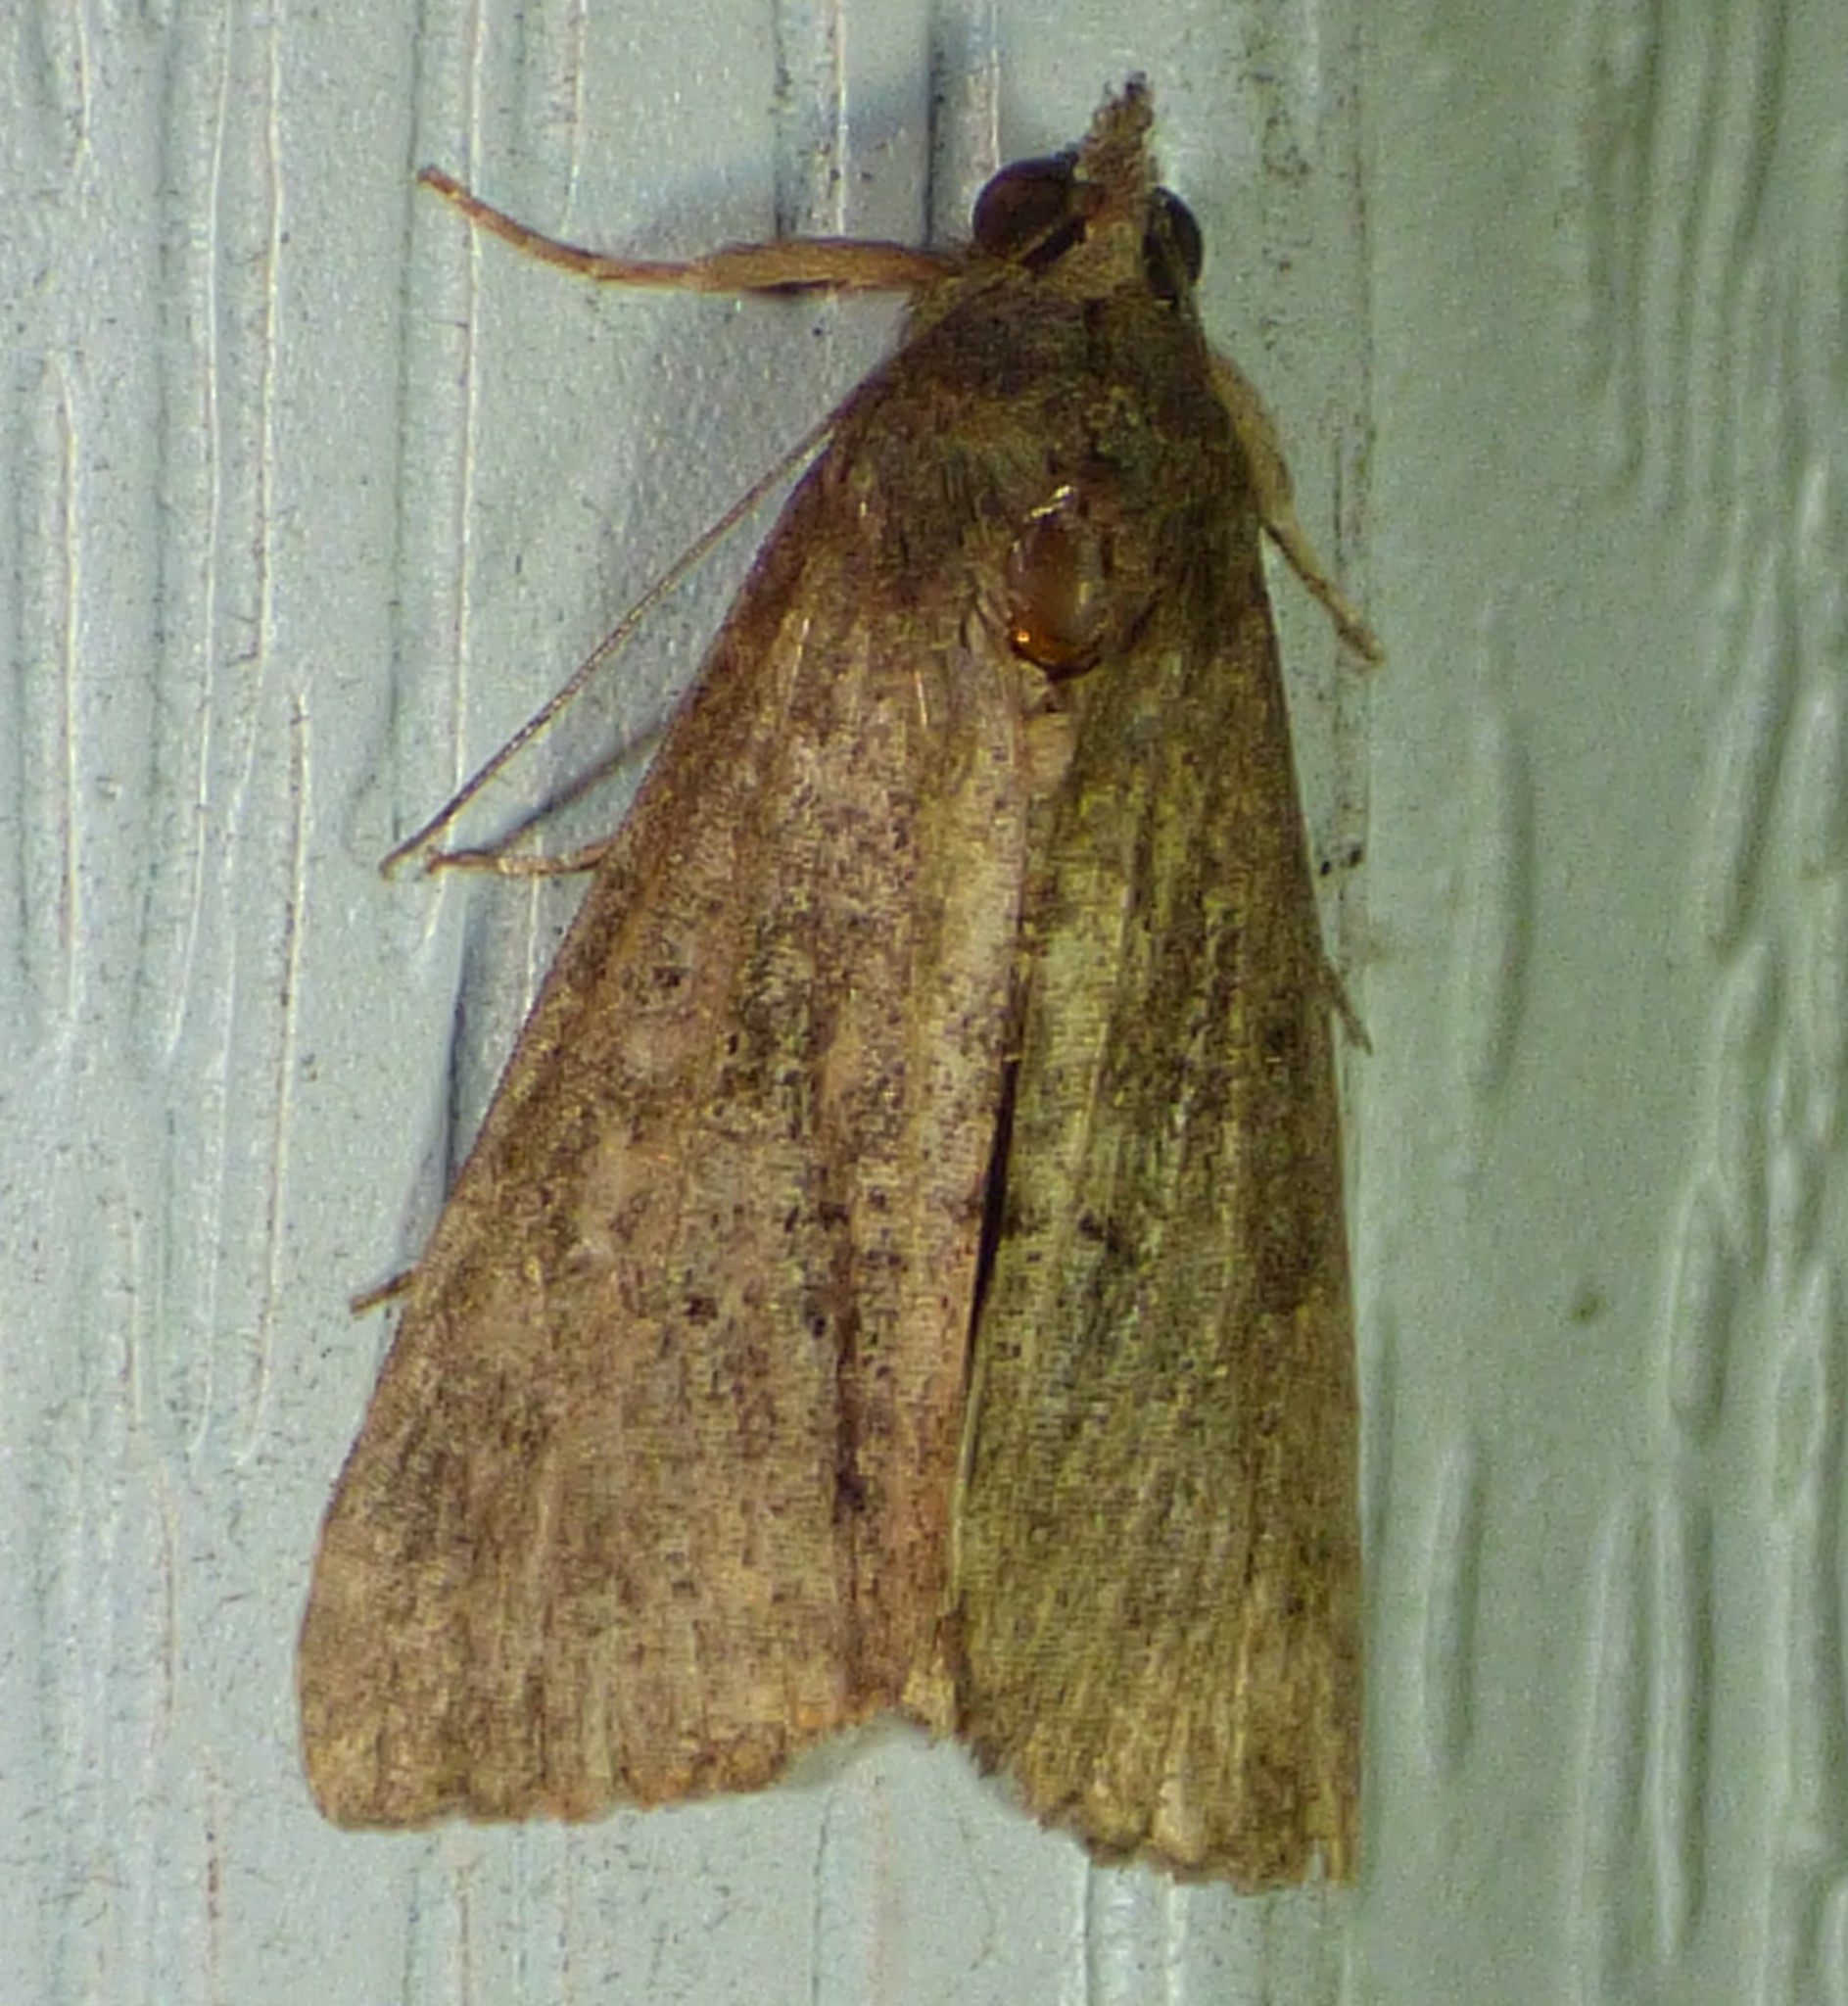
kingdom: Animalia
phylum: Arthropoda
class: Insecta
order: Lepidoptera
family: Erebidae
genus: Hypena
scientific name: Hypena scabra
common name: Green cloverworm
